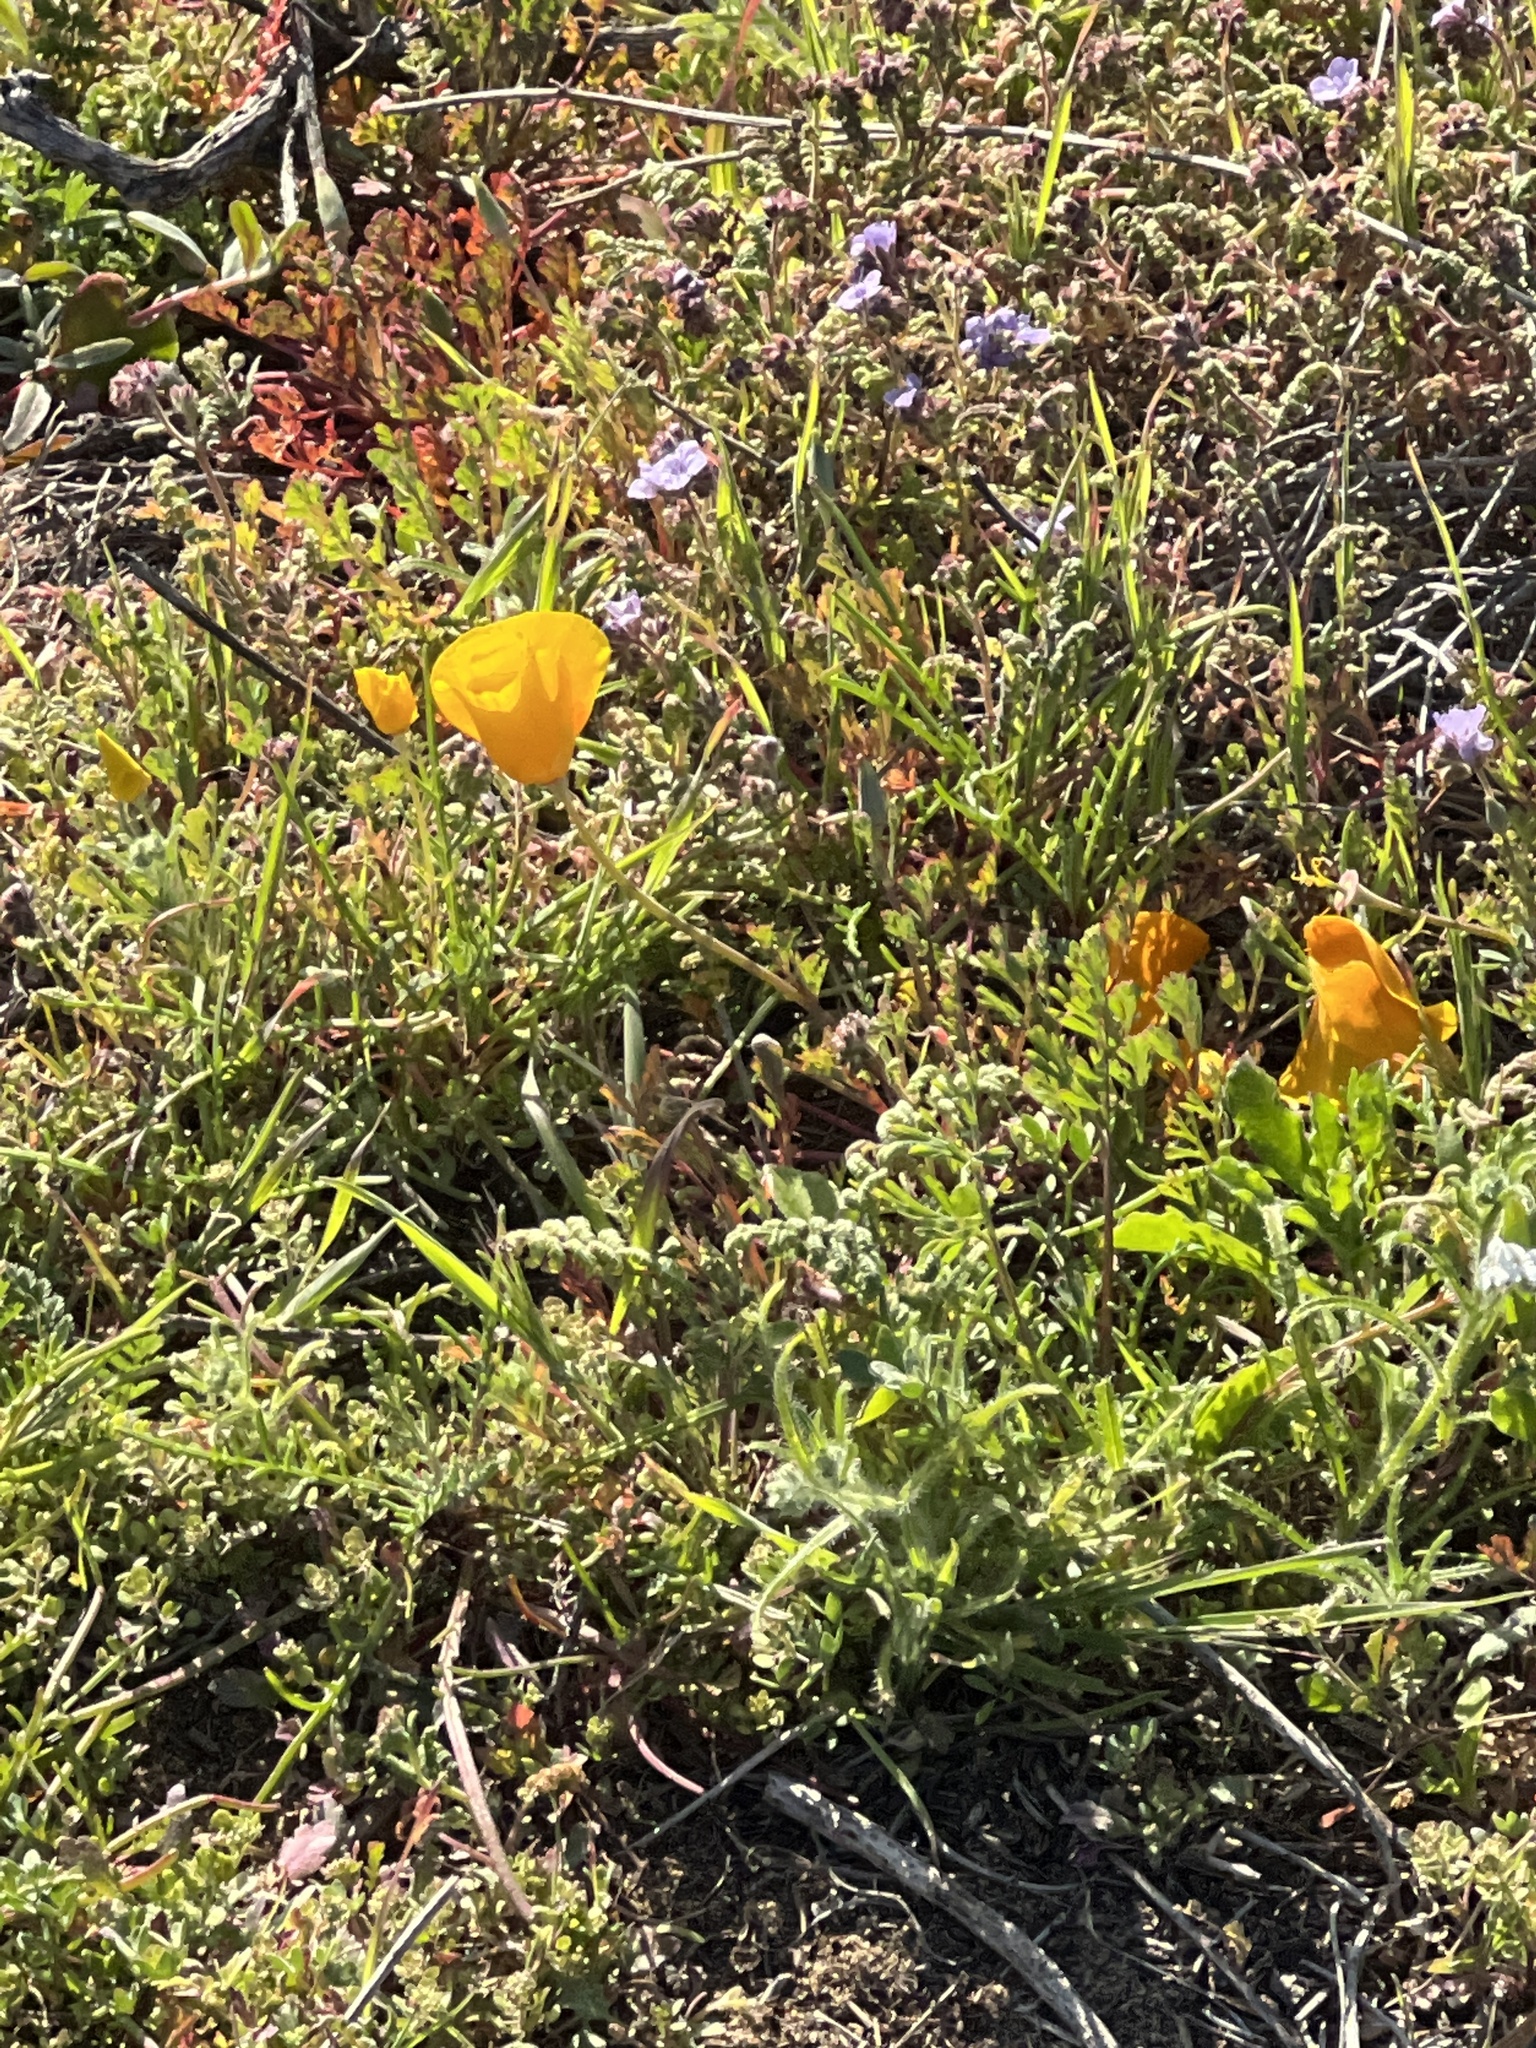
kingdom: Plantae
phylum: Tracheophyta
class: Magnoliopsida
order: Ranunculales
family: Papaveraceae
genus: Eschscholzia
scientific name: Eschscholzia californica
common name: California poppy
